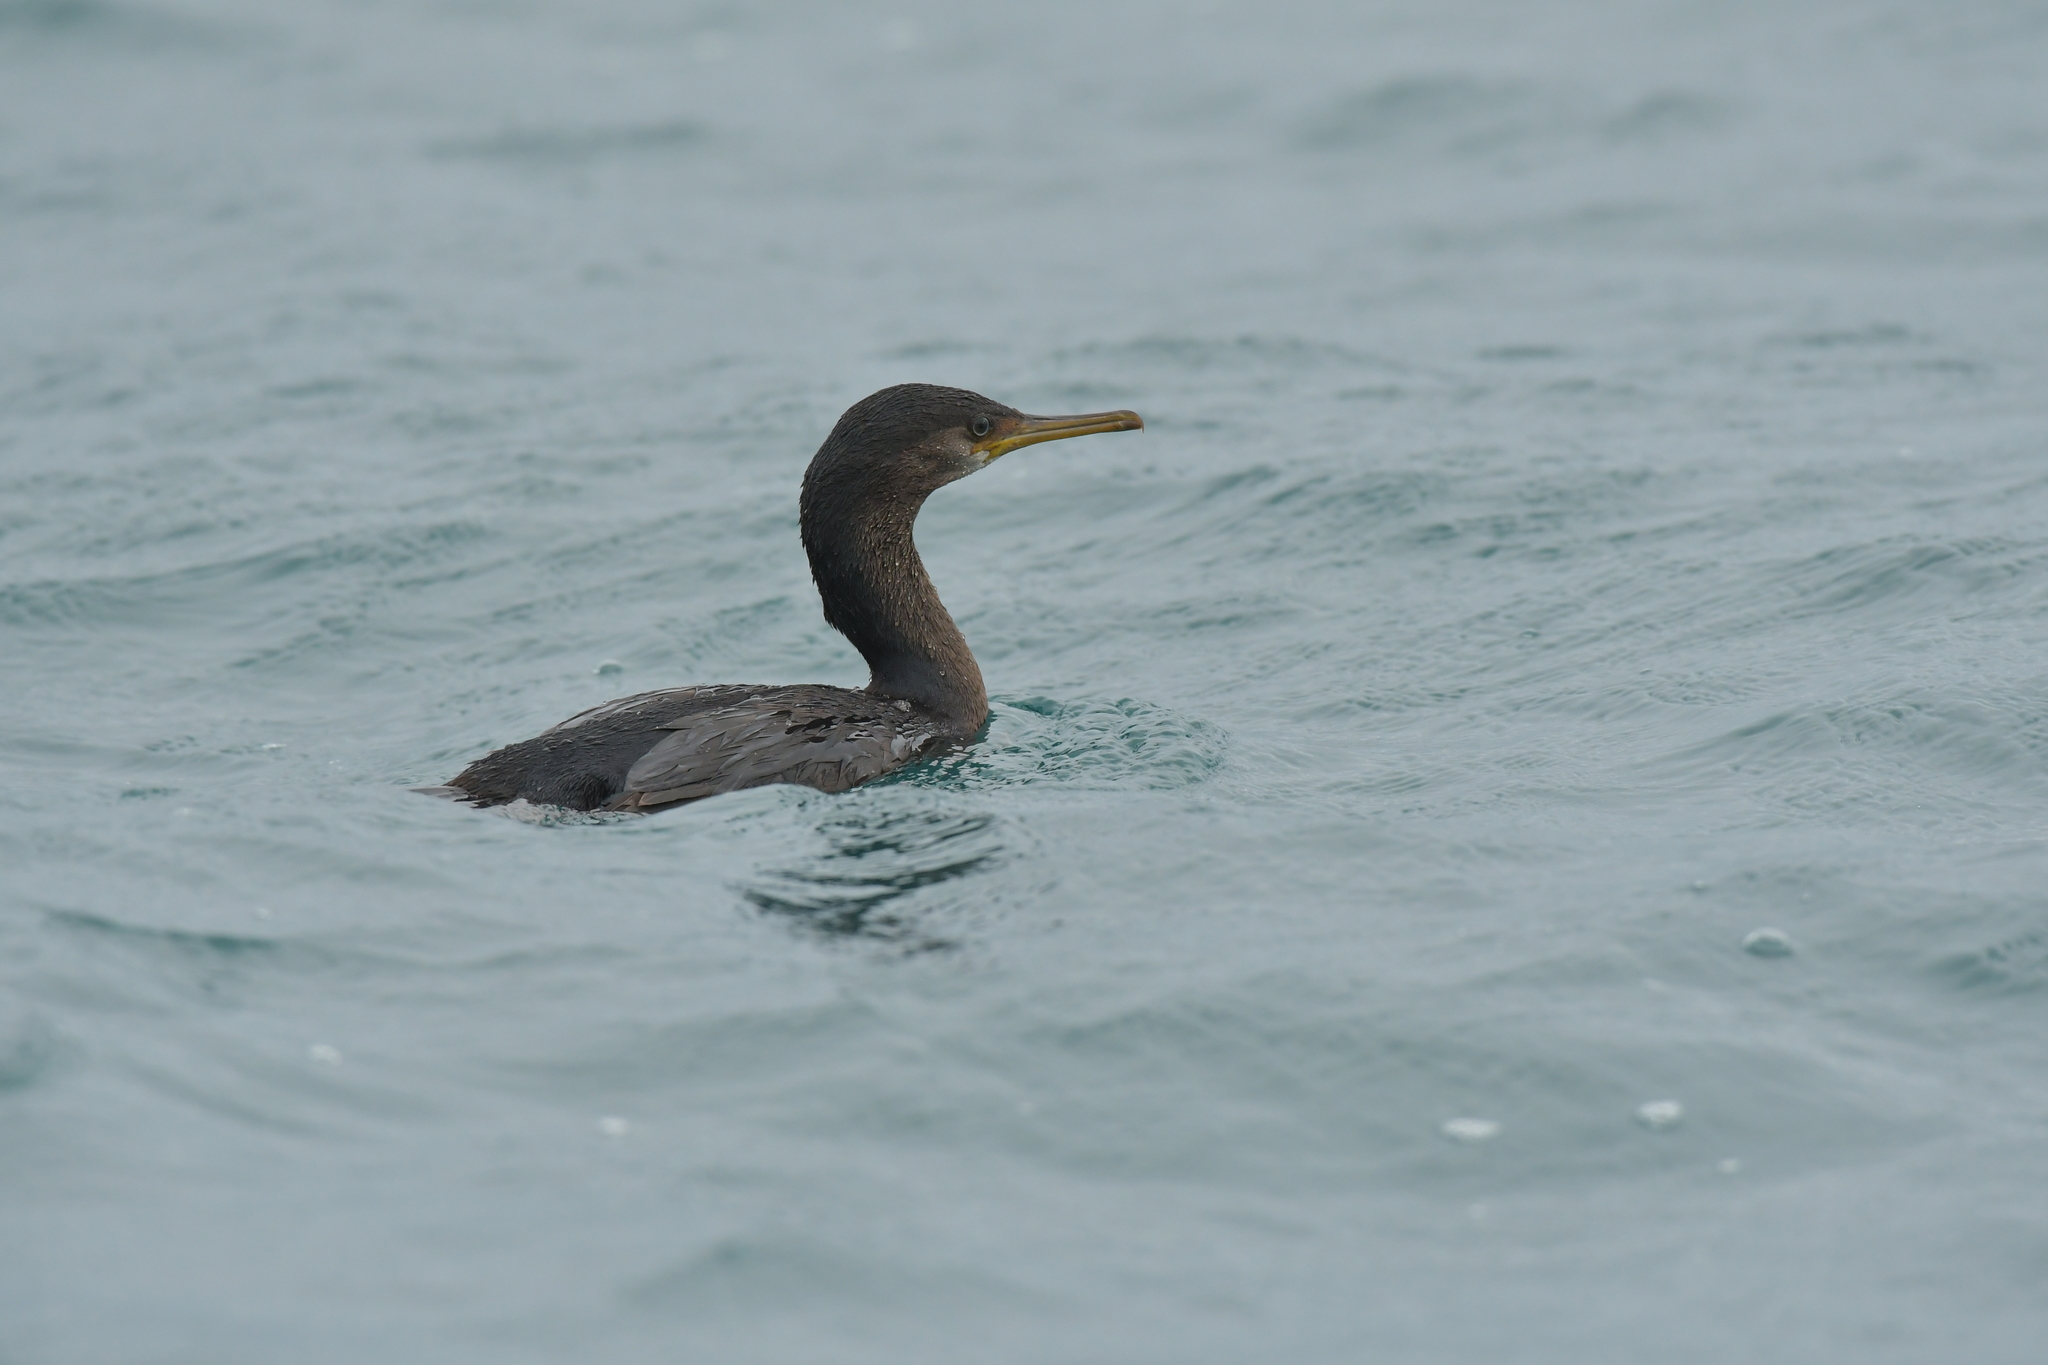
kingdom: Animalia
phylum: Chordata
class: Aves
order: Suliformes
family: Phalacrocoracidae
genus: Phalacrocorax
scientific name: Phalacrocorax featherstoni
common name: Pitt shag
